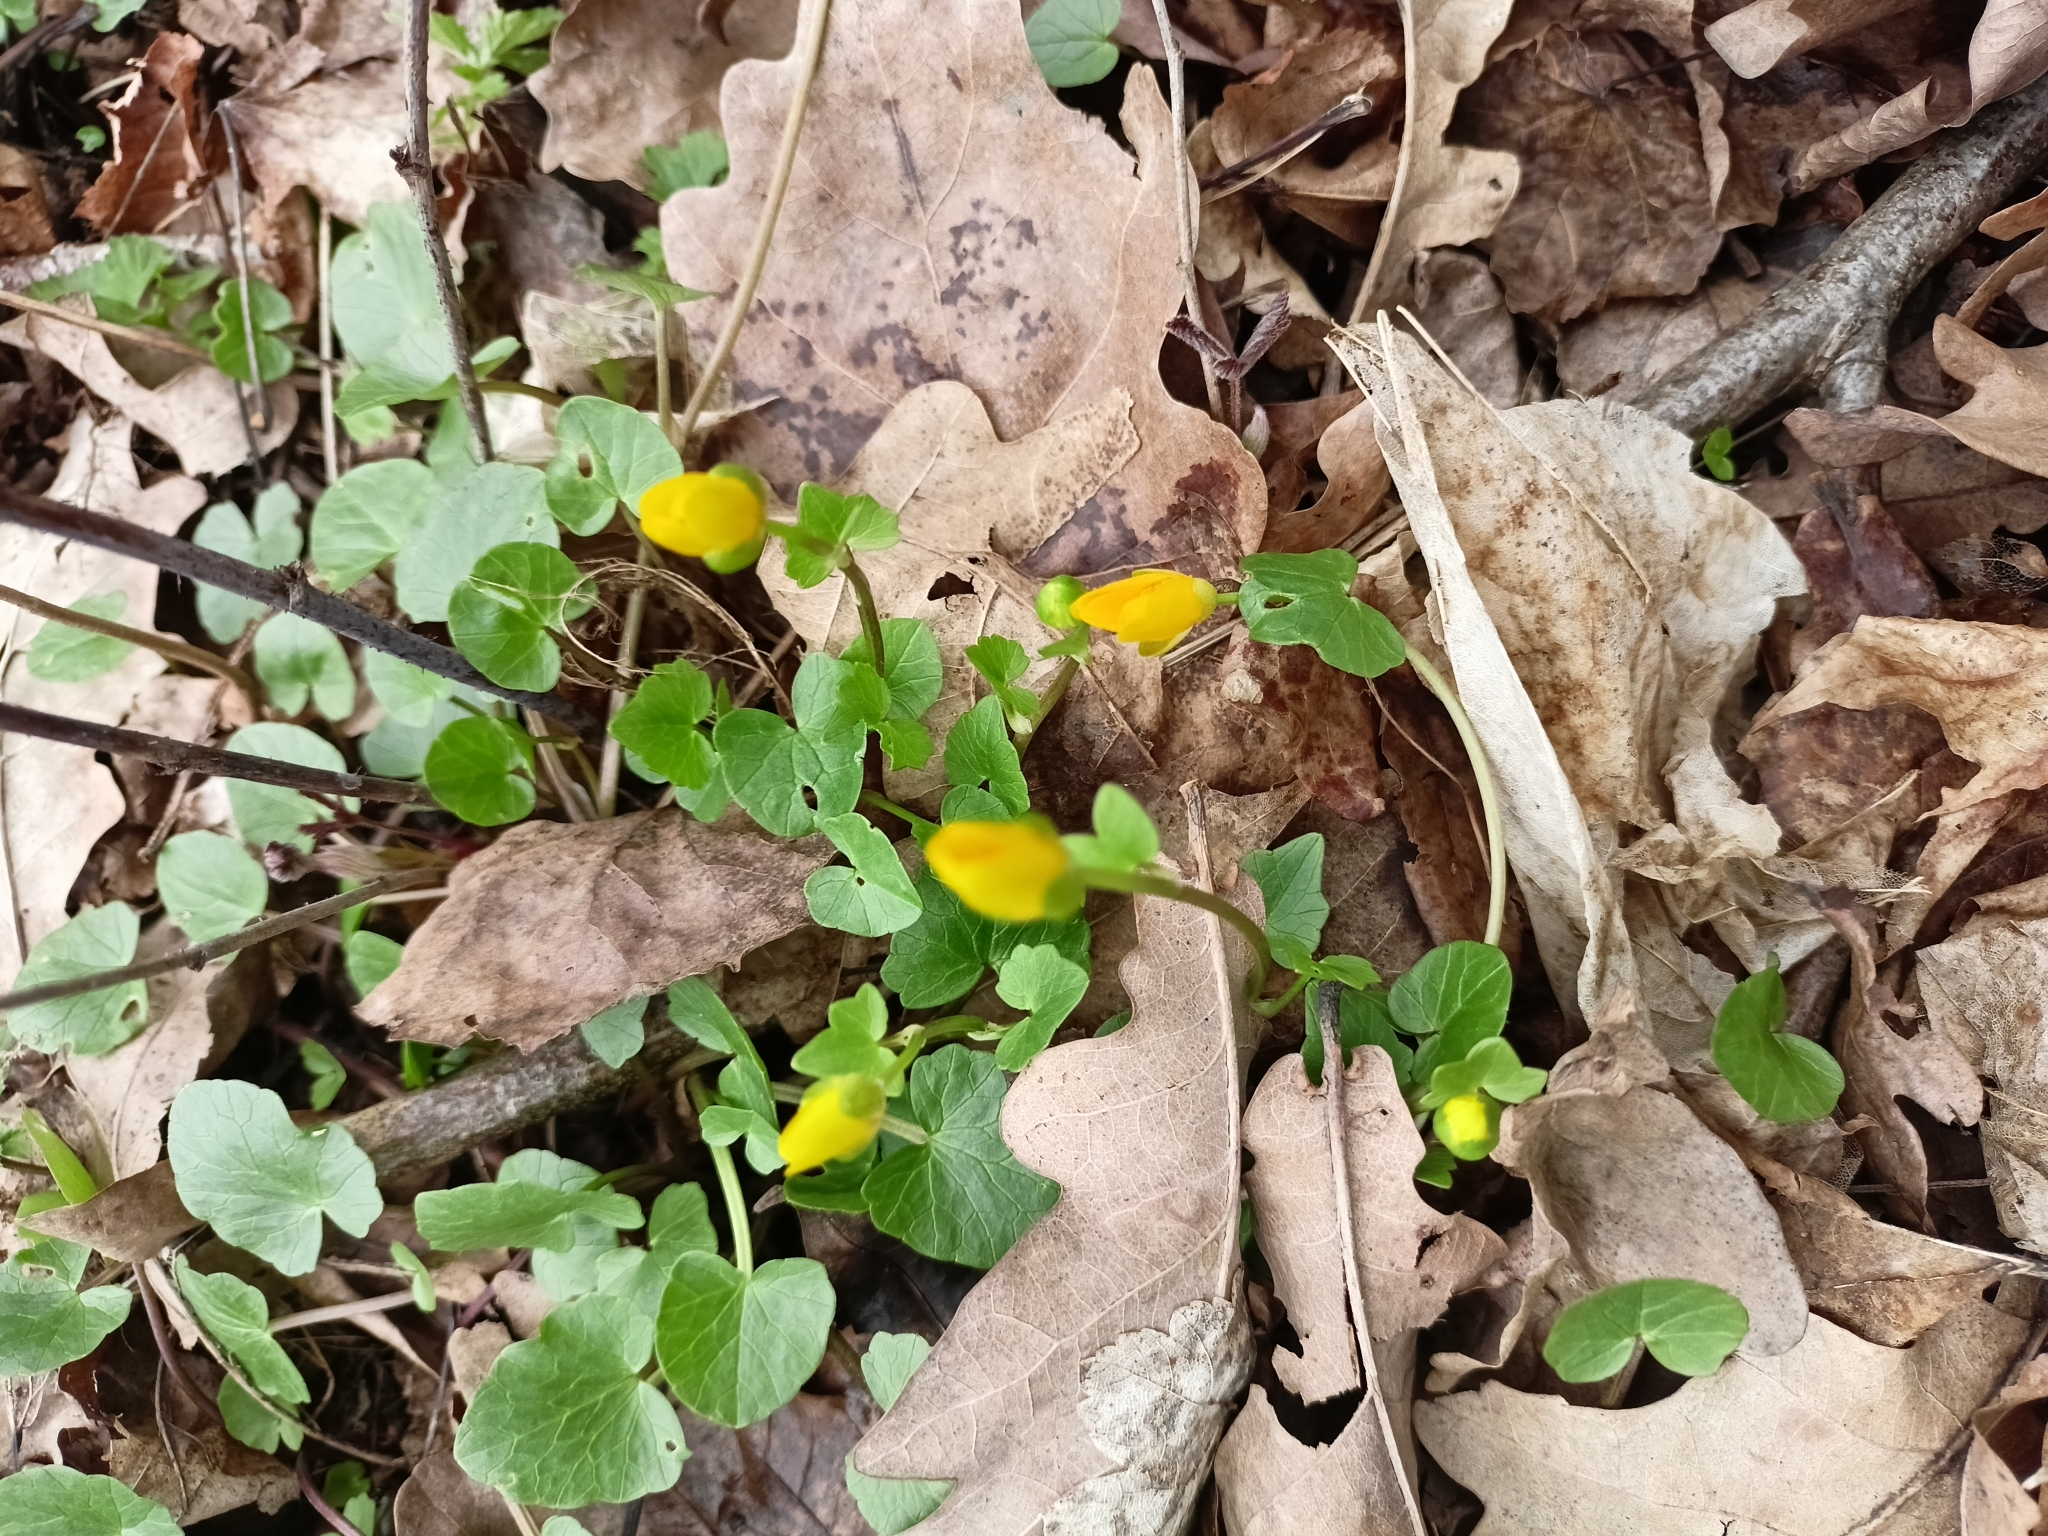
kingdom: Plantae
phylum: Tracheophyta
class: Magnoliopsida
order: Ranunculales
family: Ranunculaceae
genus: Ficaria
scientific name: Ficaria verna
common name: Lesser celandine
